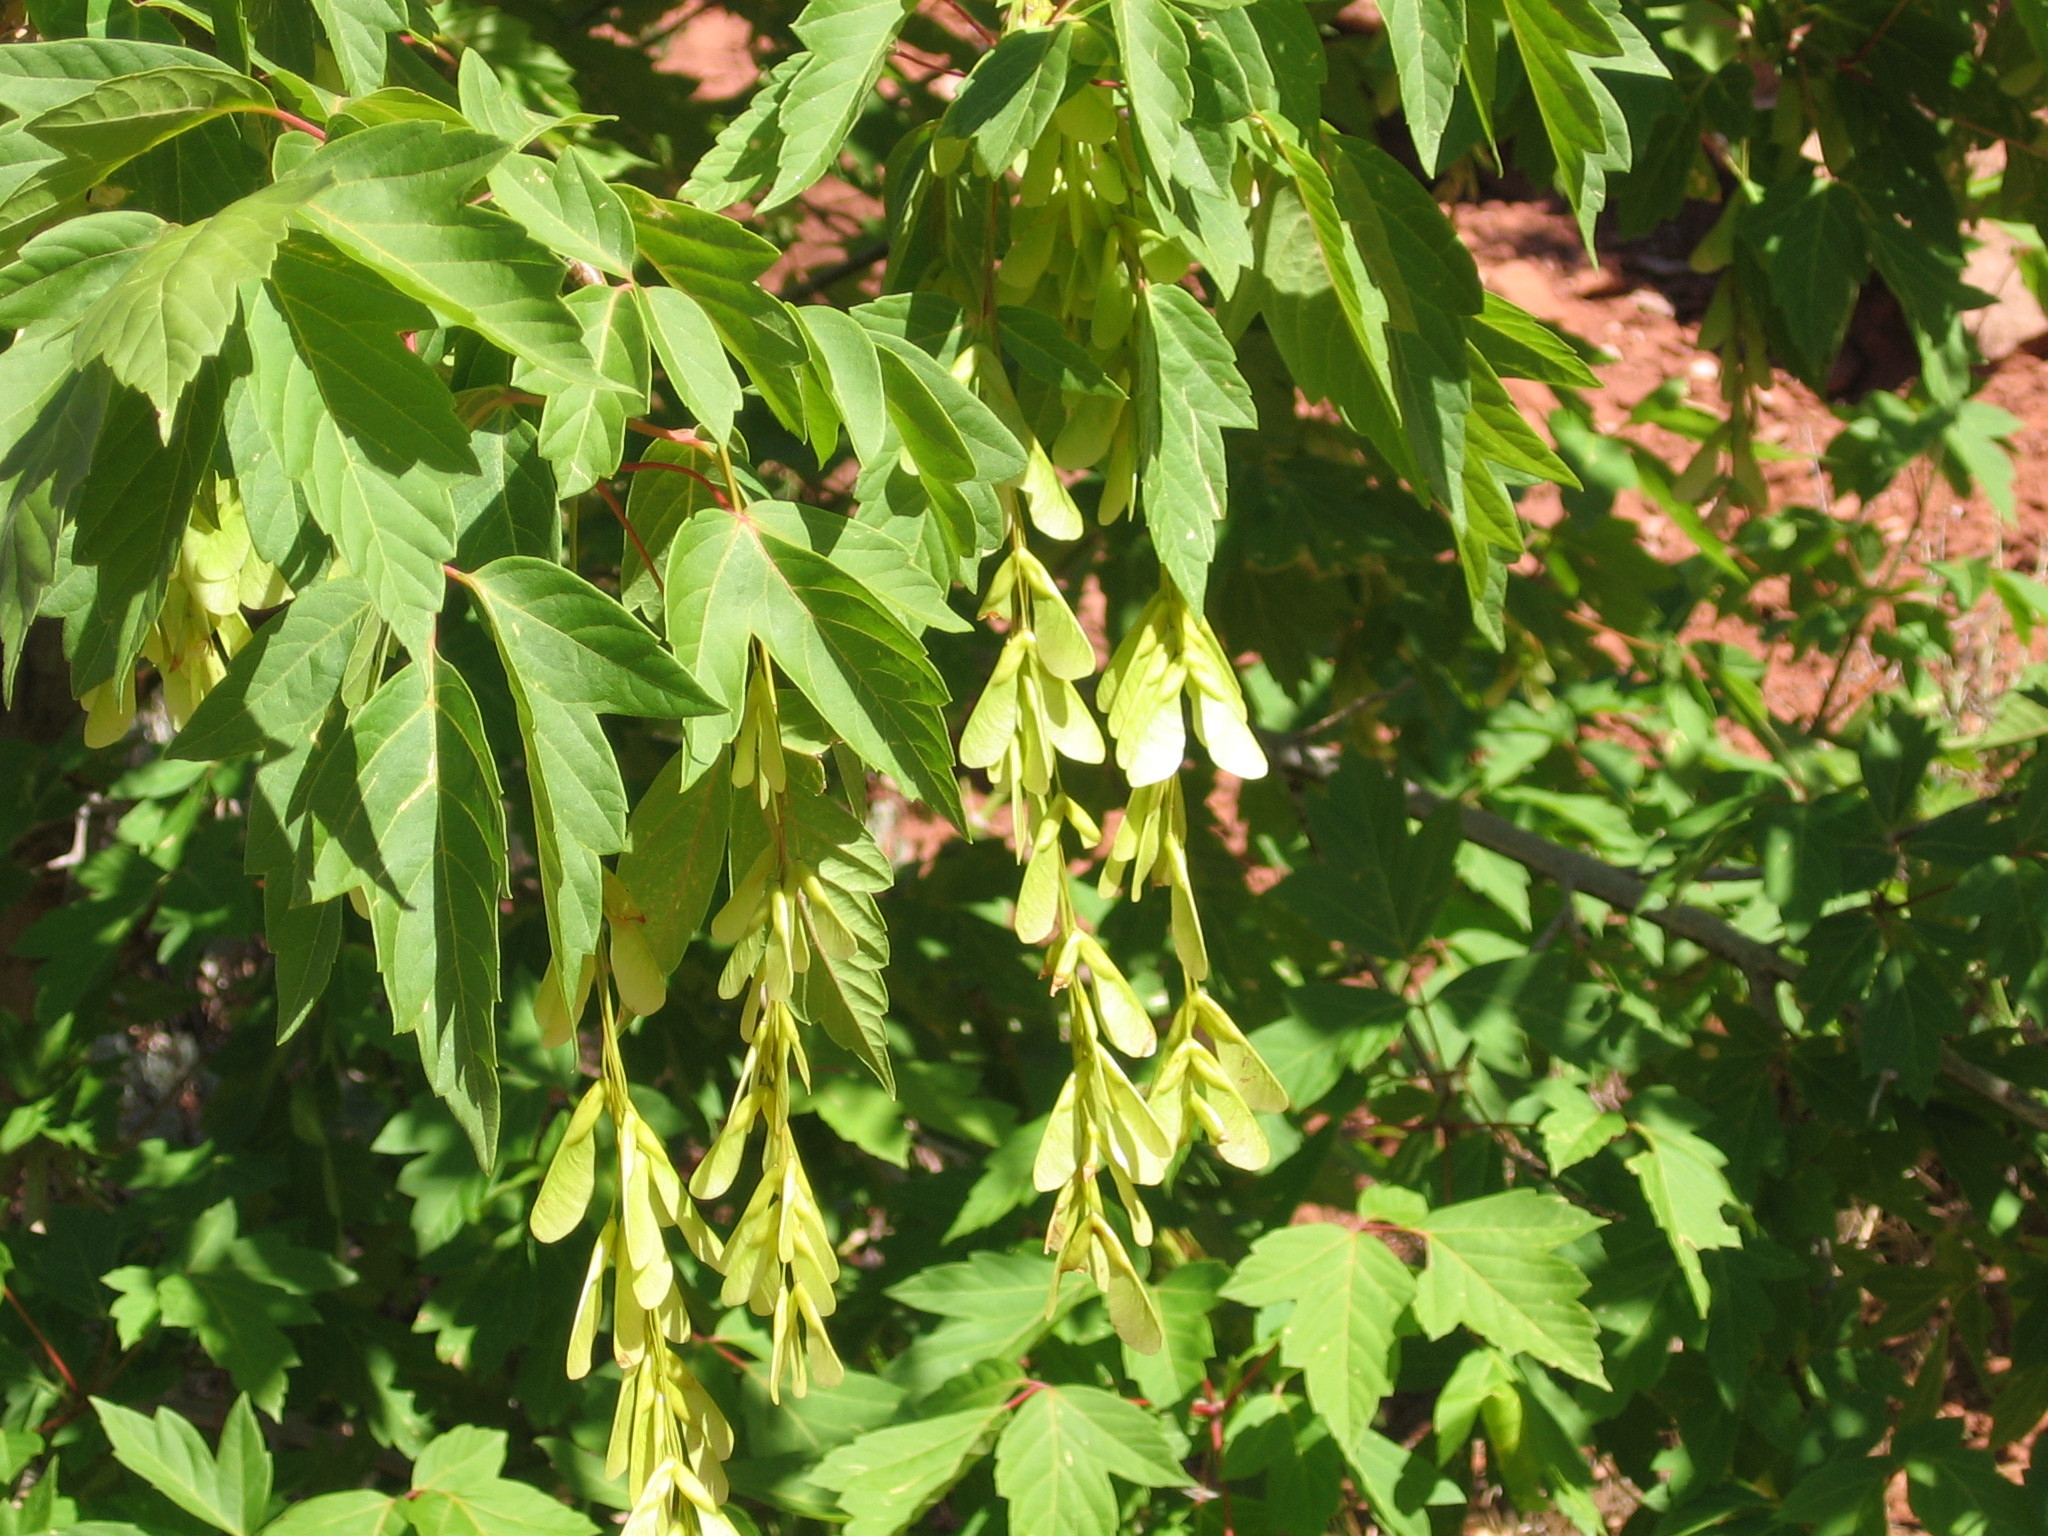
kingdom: Plantae
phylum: Tracheophyta
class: Magnoliopsida
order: Sapindales
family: Sapindaceae
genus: Acer
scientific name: Acer negundo
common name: Ashleaf maple
